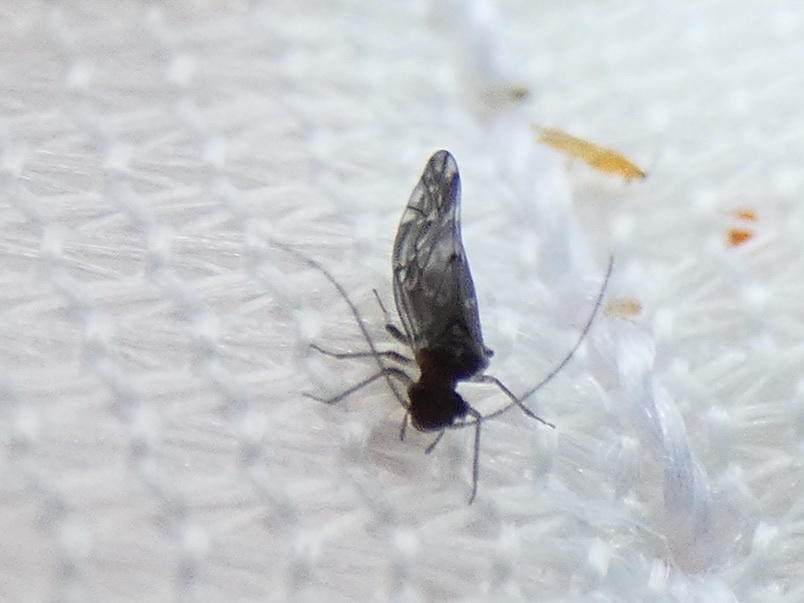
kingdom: Animalia
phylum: Arthropoda
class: Insecta
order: Psocodea
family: Peripsocidae
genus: Peripsocus
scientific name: Peripsocus alboguttatus
